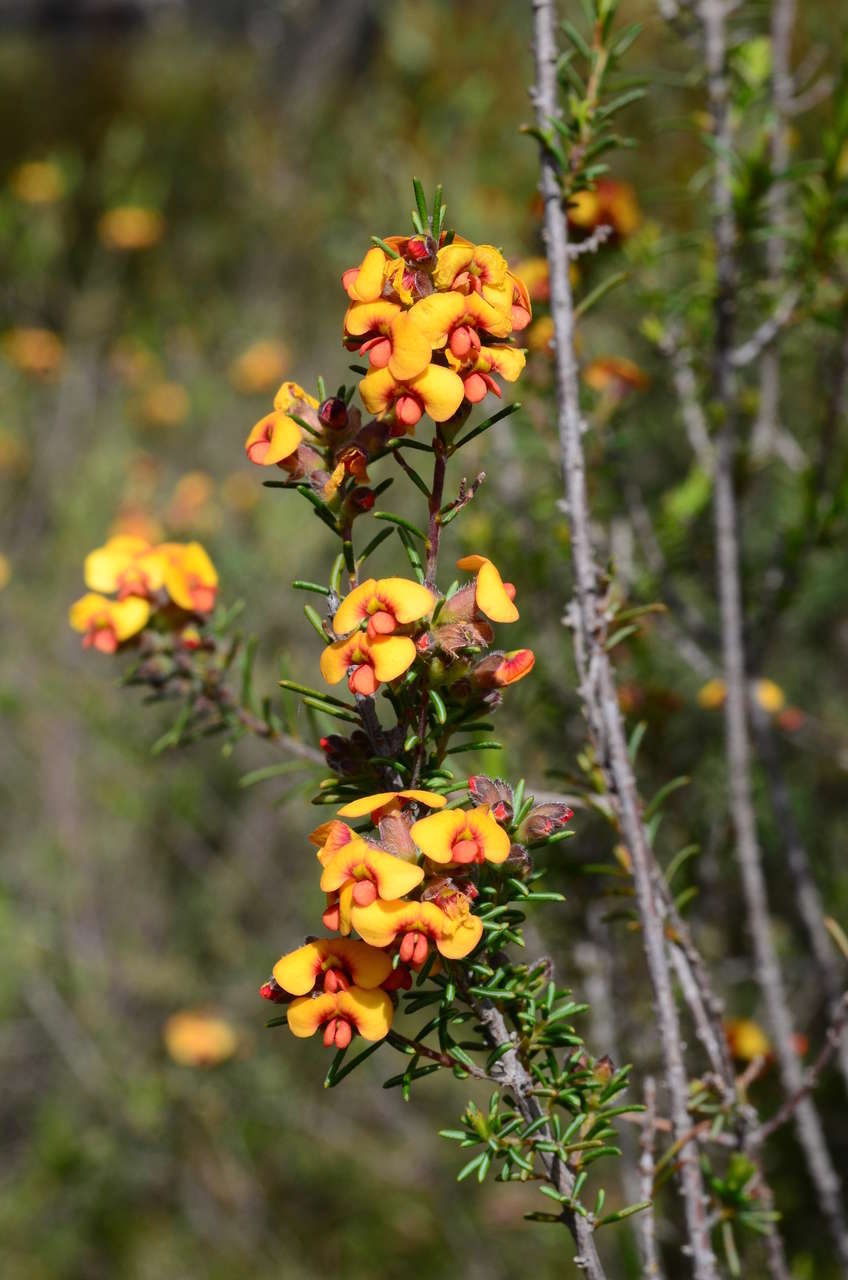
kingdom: Plantae
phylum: Tracheophyta
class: Magnoliopsida
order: Fabales
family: Fabaceae
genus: Dillwynia
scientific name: Dillwynia sericea
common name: Showy parrot-pea
